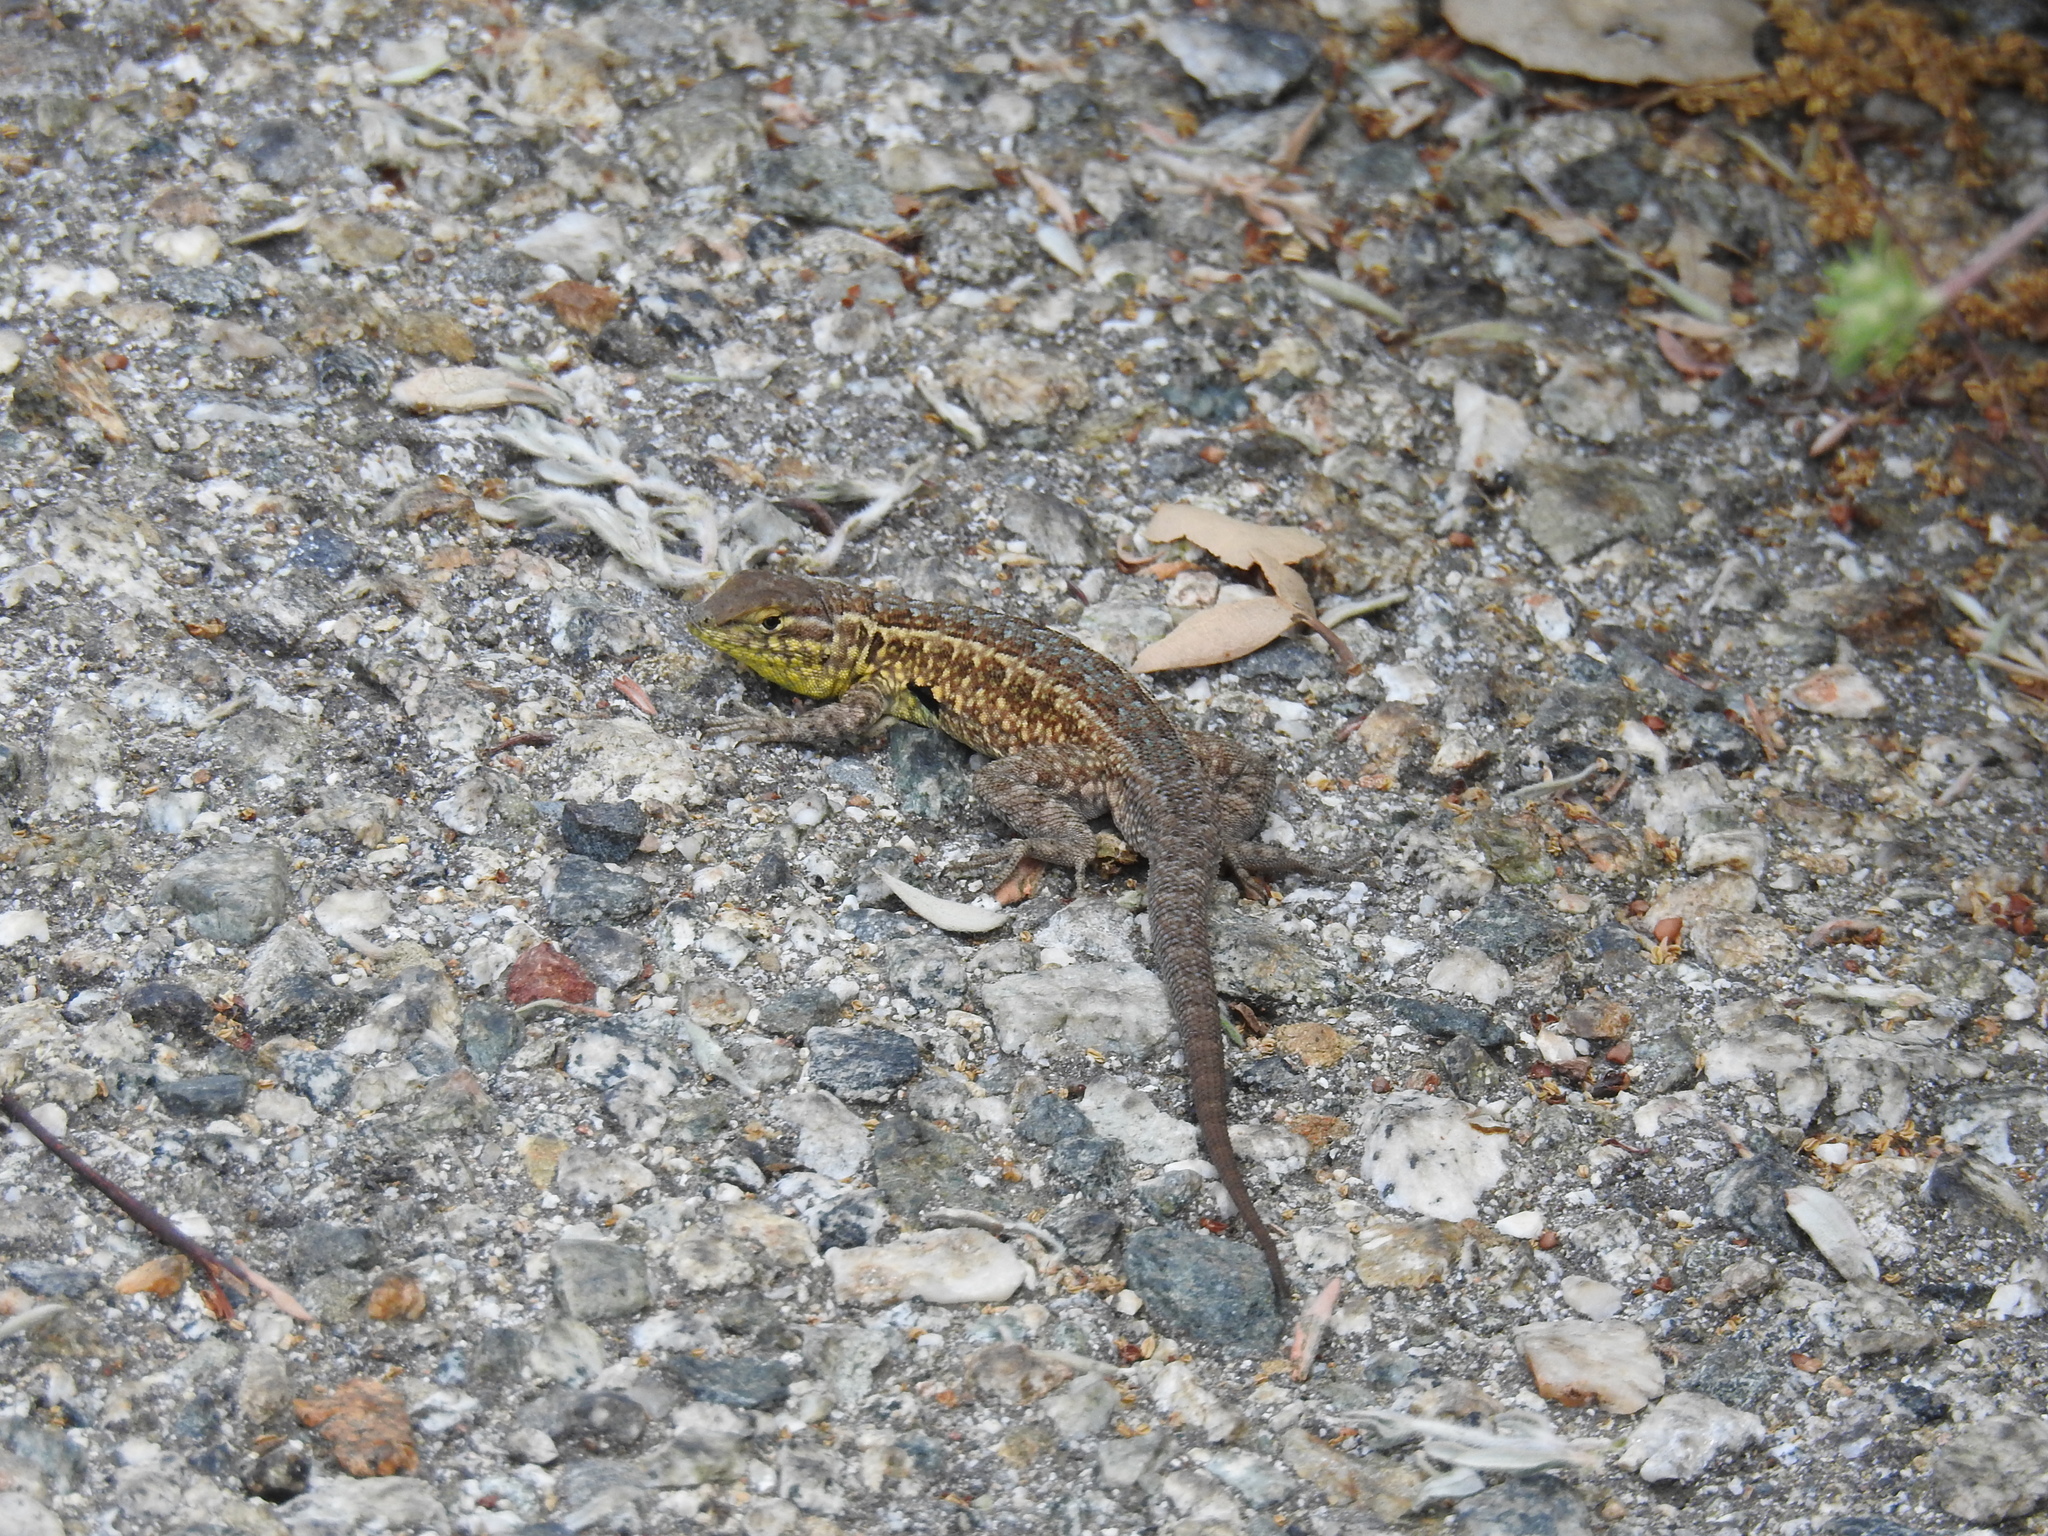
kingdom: Animalia
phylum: Chordata
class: Squamata
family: Phrynosomatidae
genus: Uta
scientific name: Uta stansburiana
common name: Side-blotched lizard
